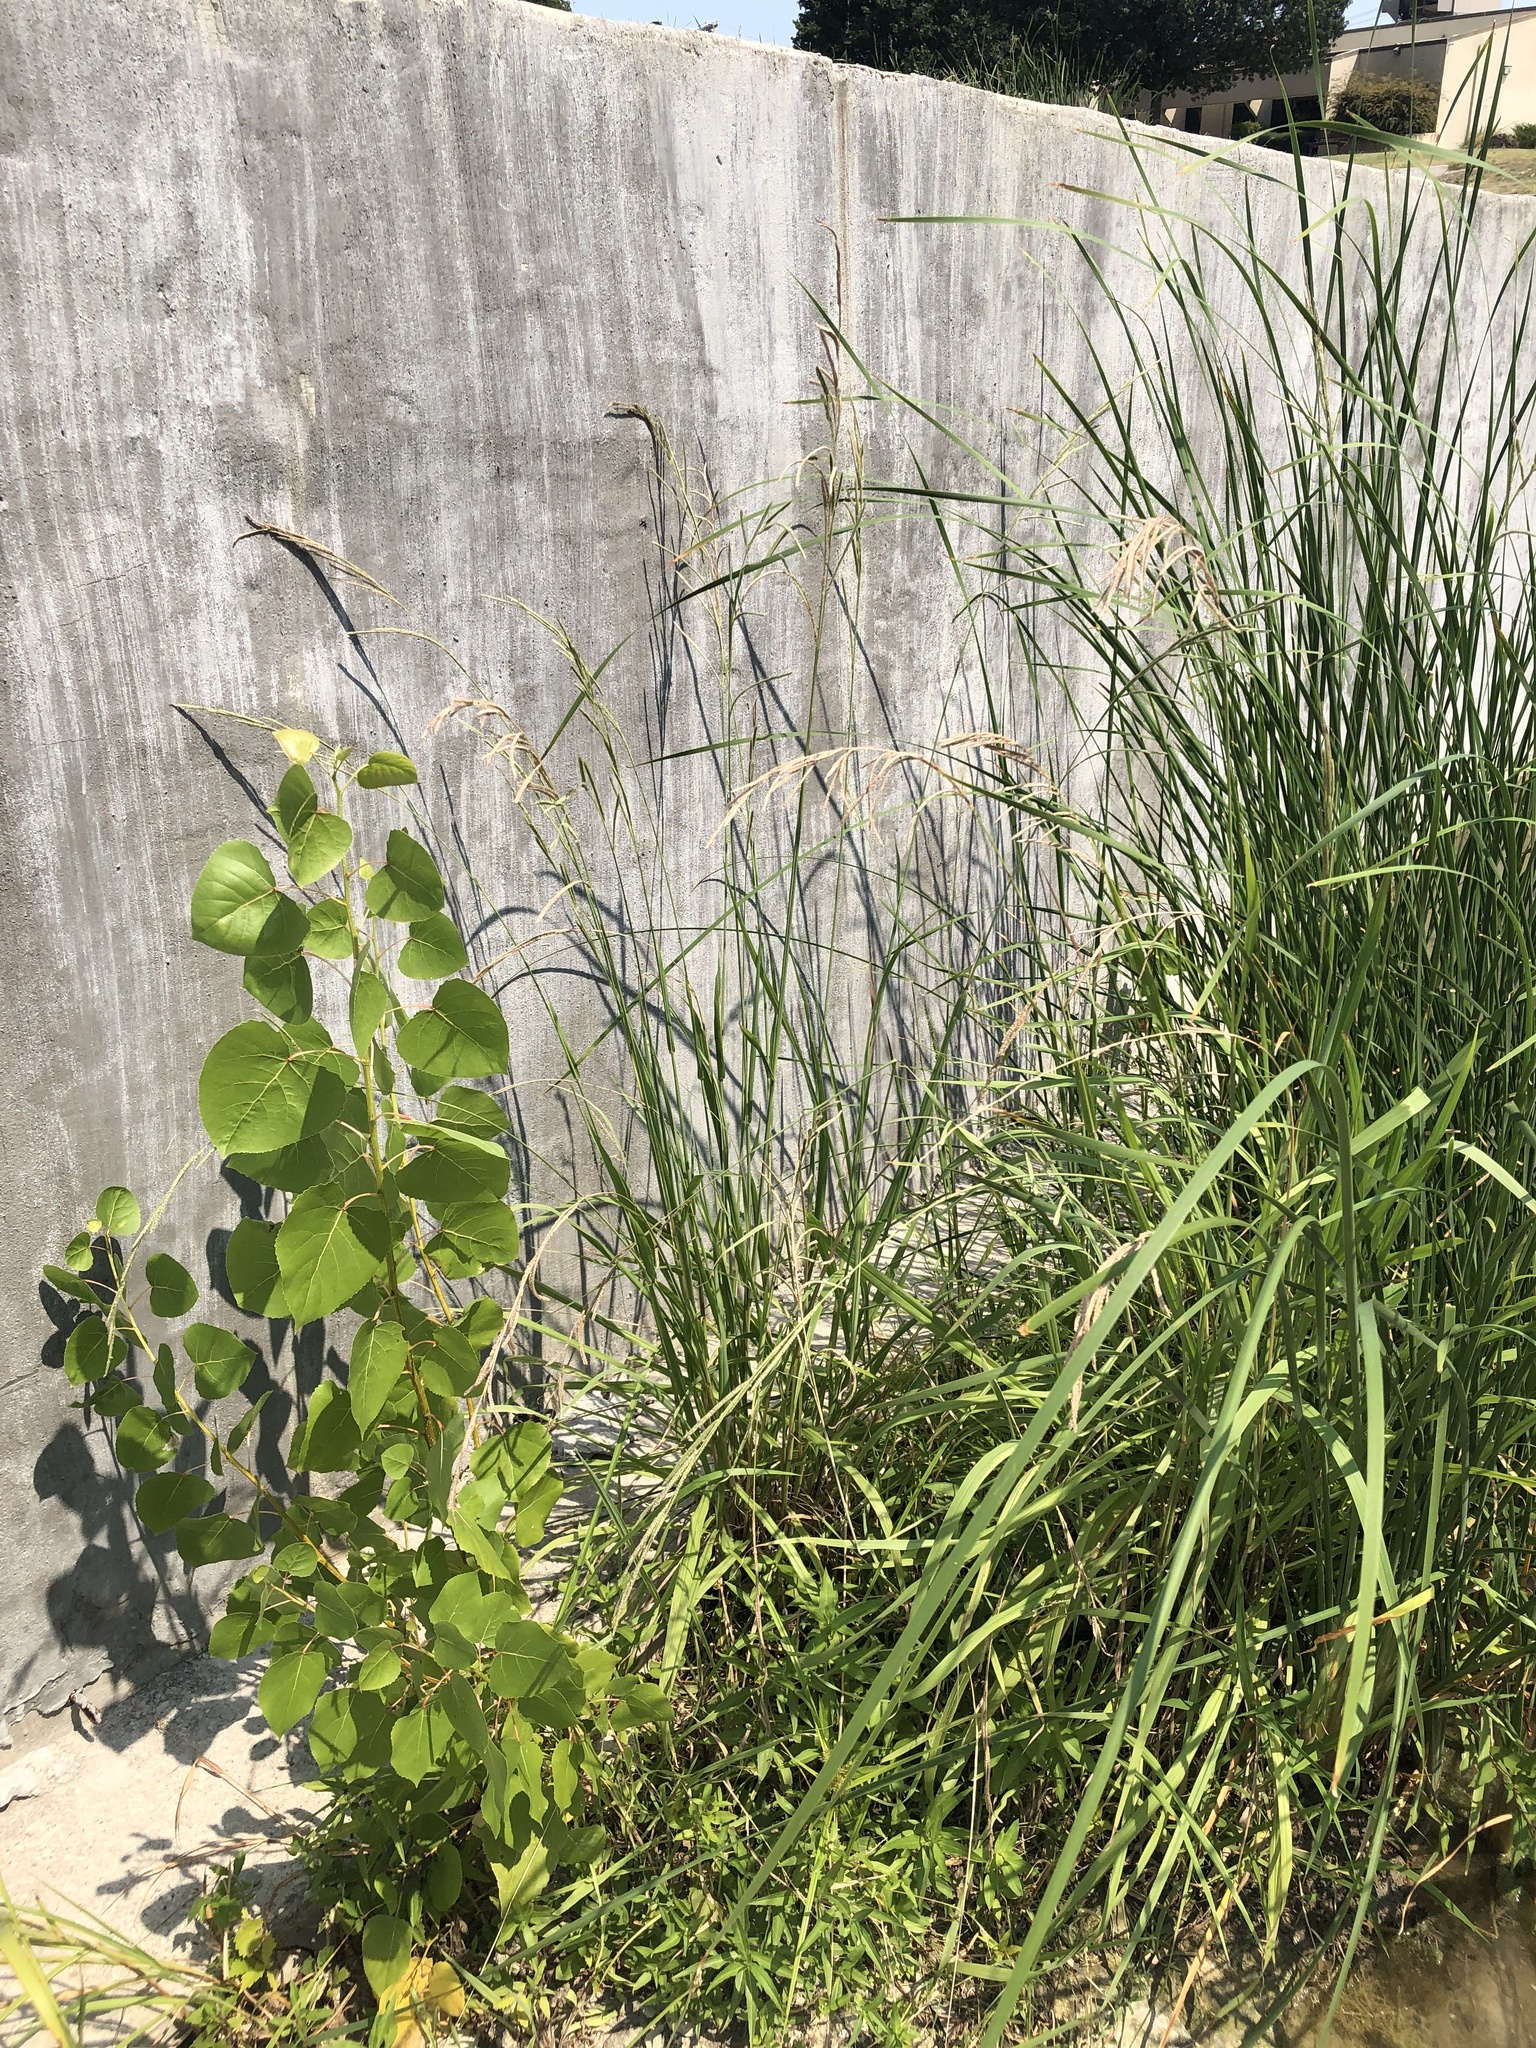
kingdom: Plantae
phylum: Tracheophyta
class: Liliopsida
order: Poales
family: Poaceae
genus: Paspalum
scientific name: Paspalum urvillei
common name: Vasey's grass
